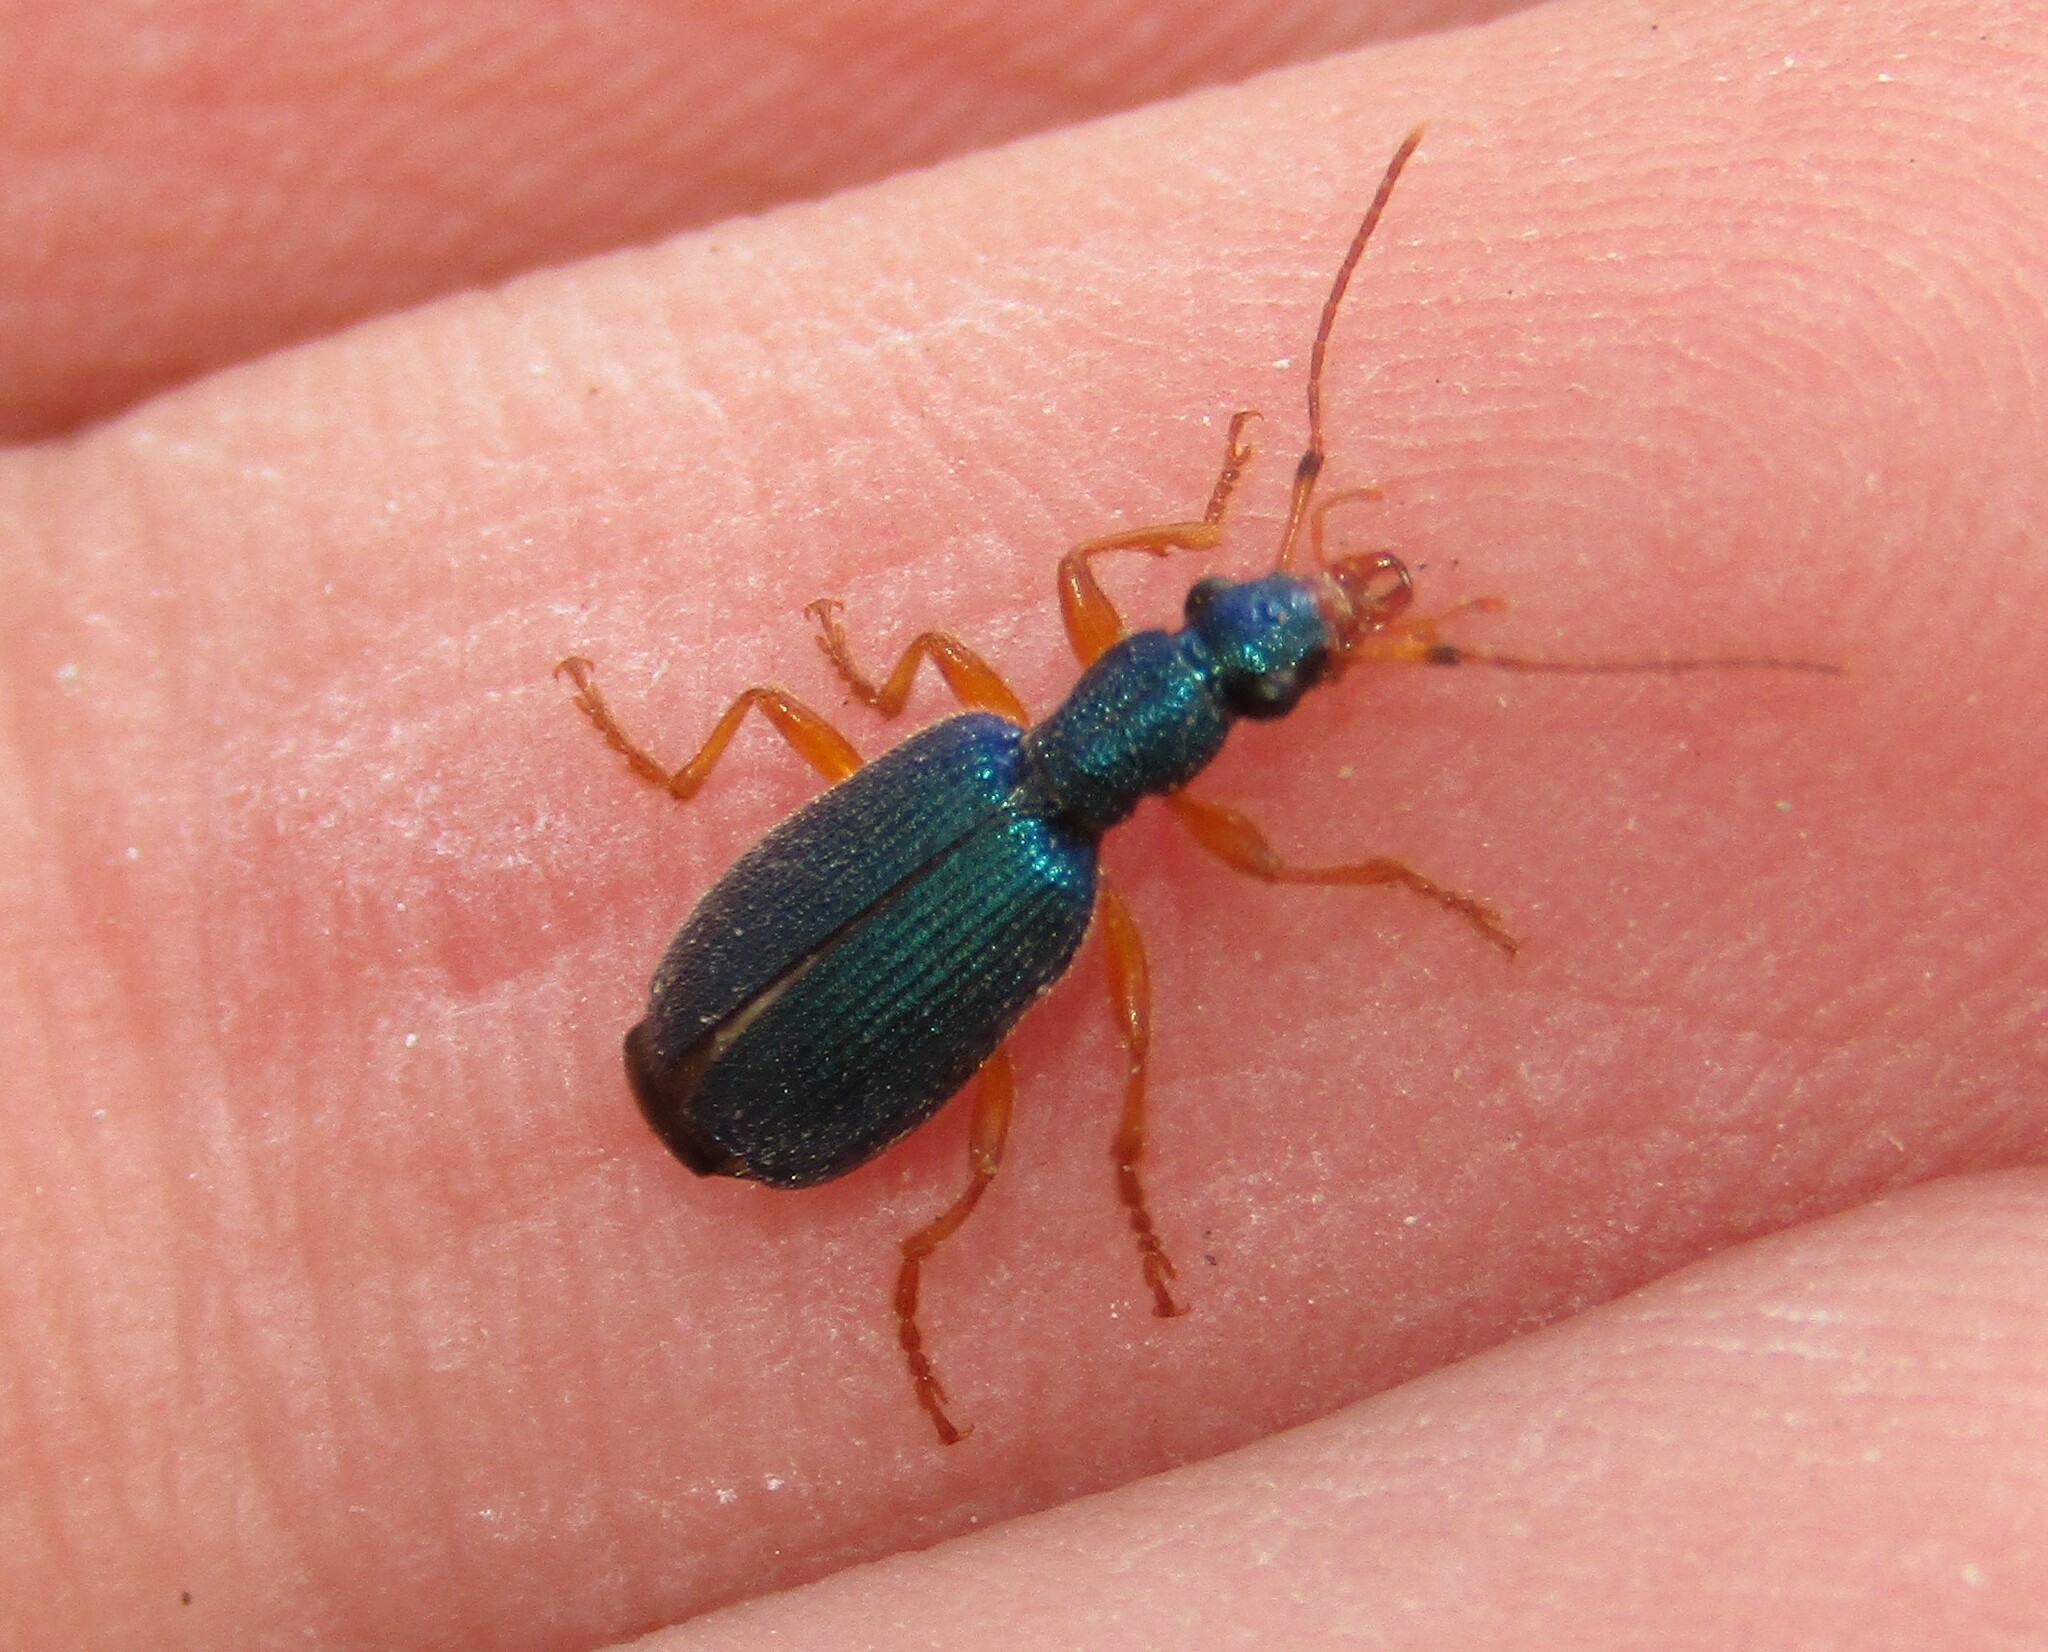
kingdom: Animalia
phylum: Arthropoda
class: Insecta
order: Coleoptera
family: Carabidae
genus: Drypta
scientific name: Drypta dentata
